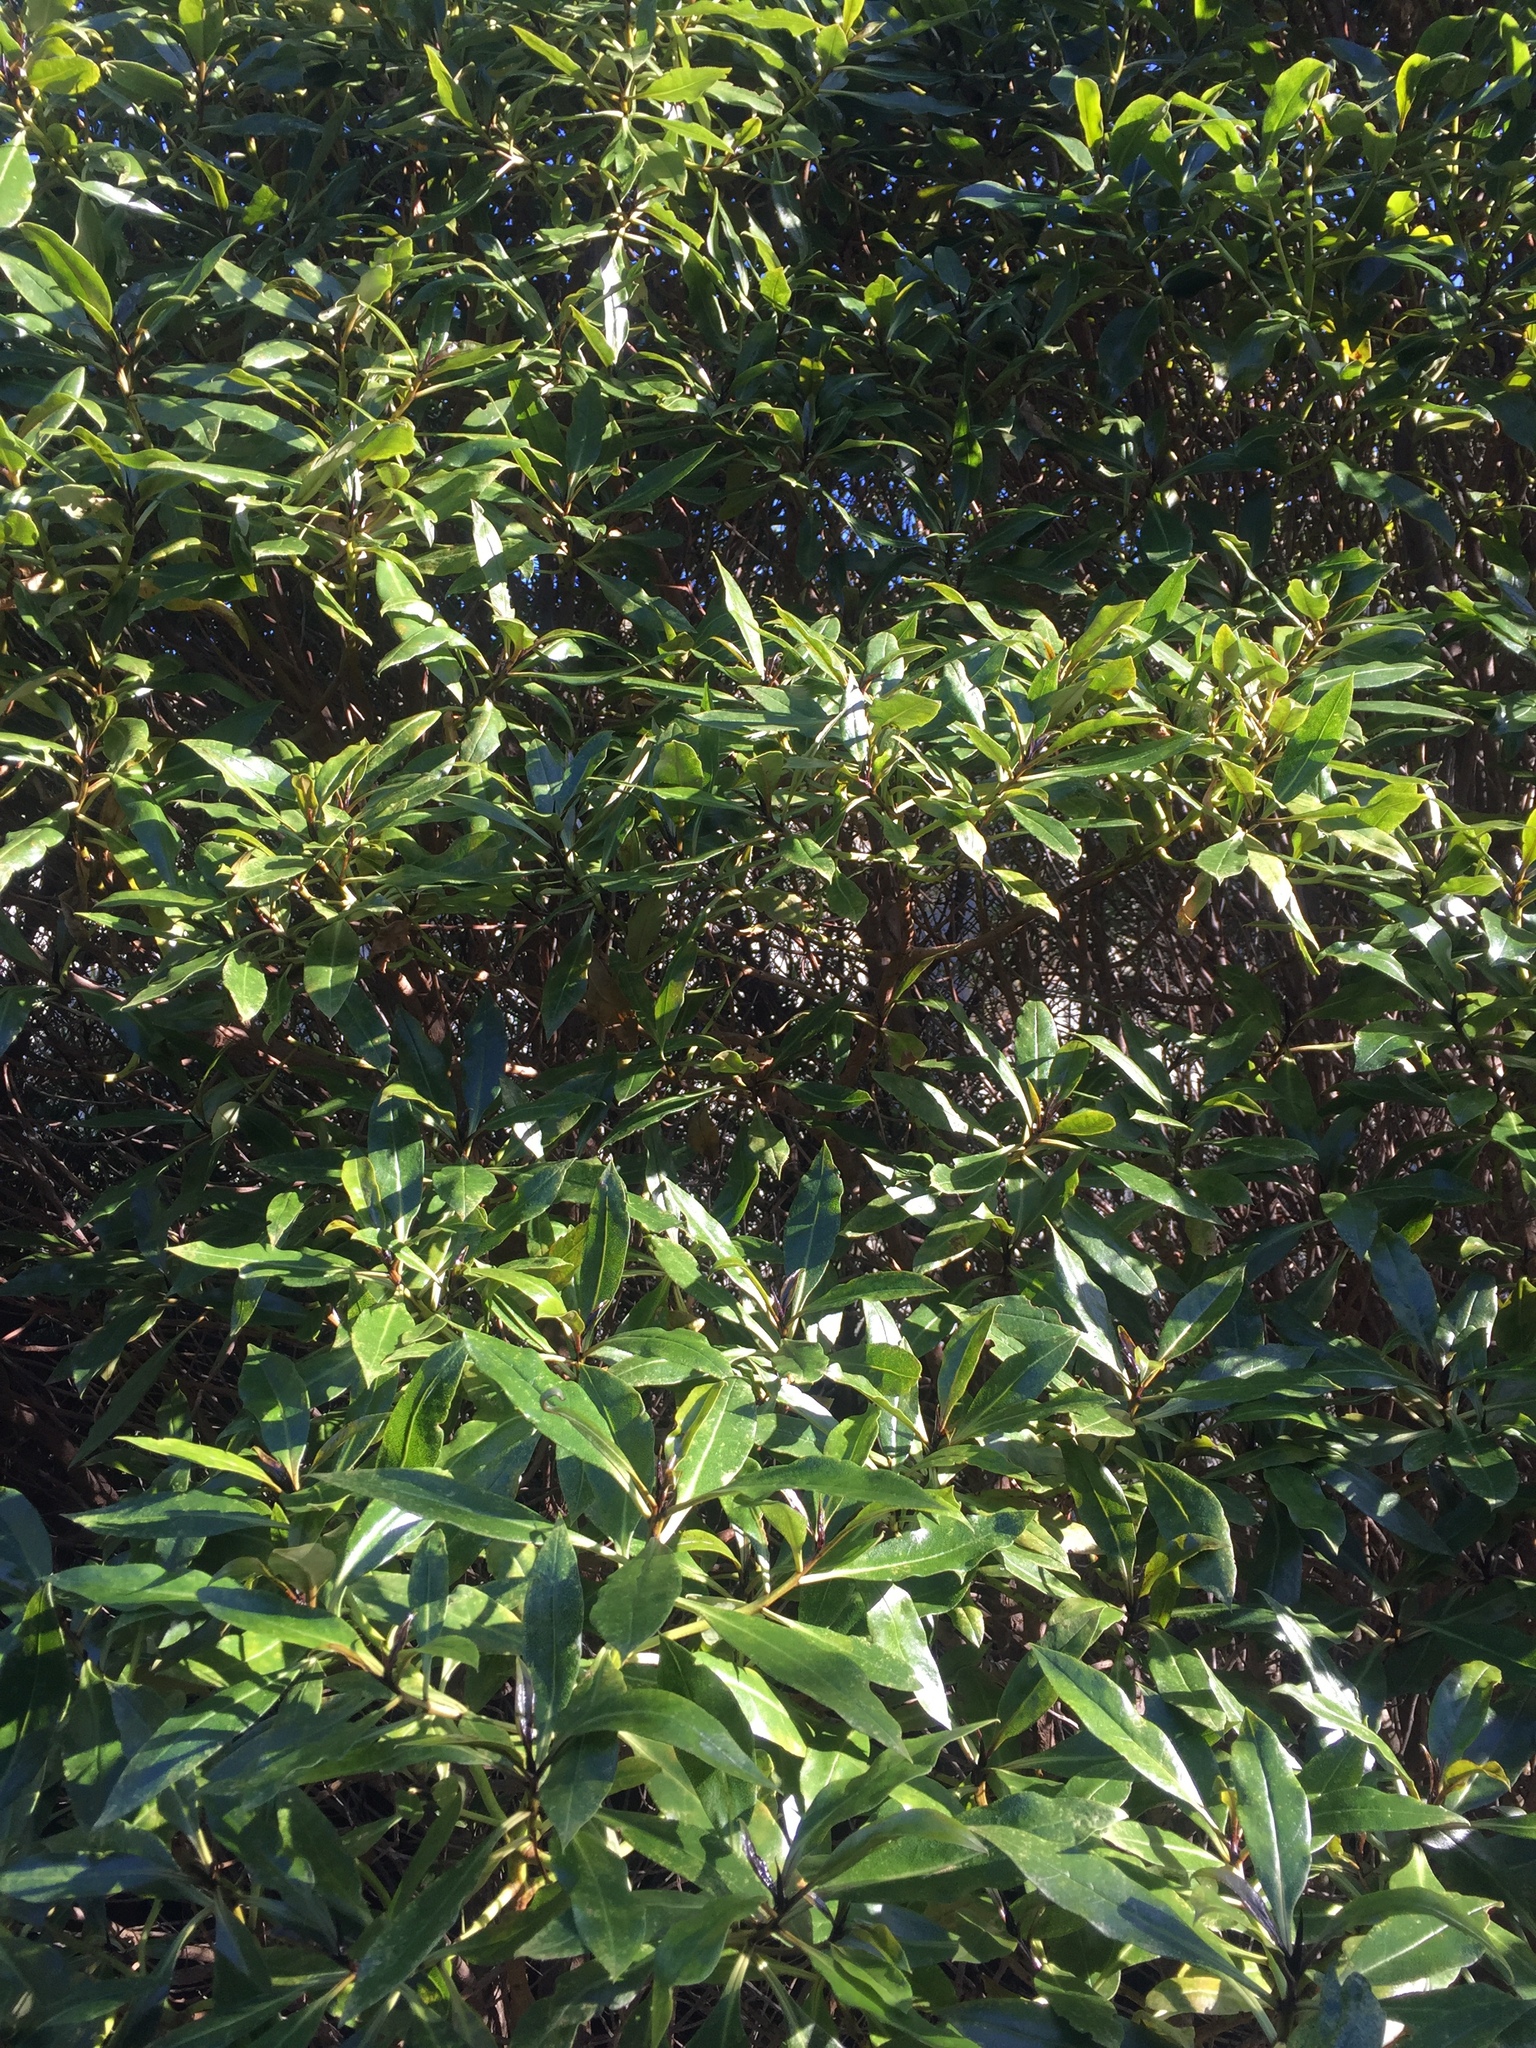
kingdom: Plantae
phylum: Tracheophyta
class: Magnoliopsida
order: Lamiales
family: Scrophulariaceae
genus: Myoporum
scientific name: Myoporum laetum
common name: Ngaio tree
